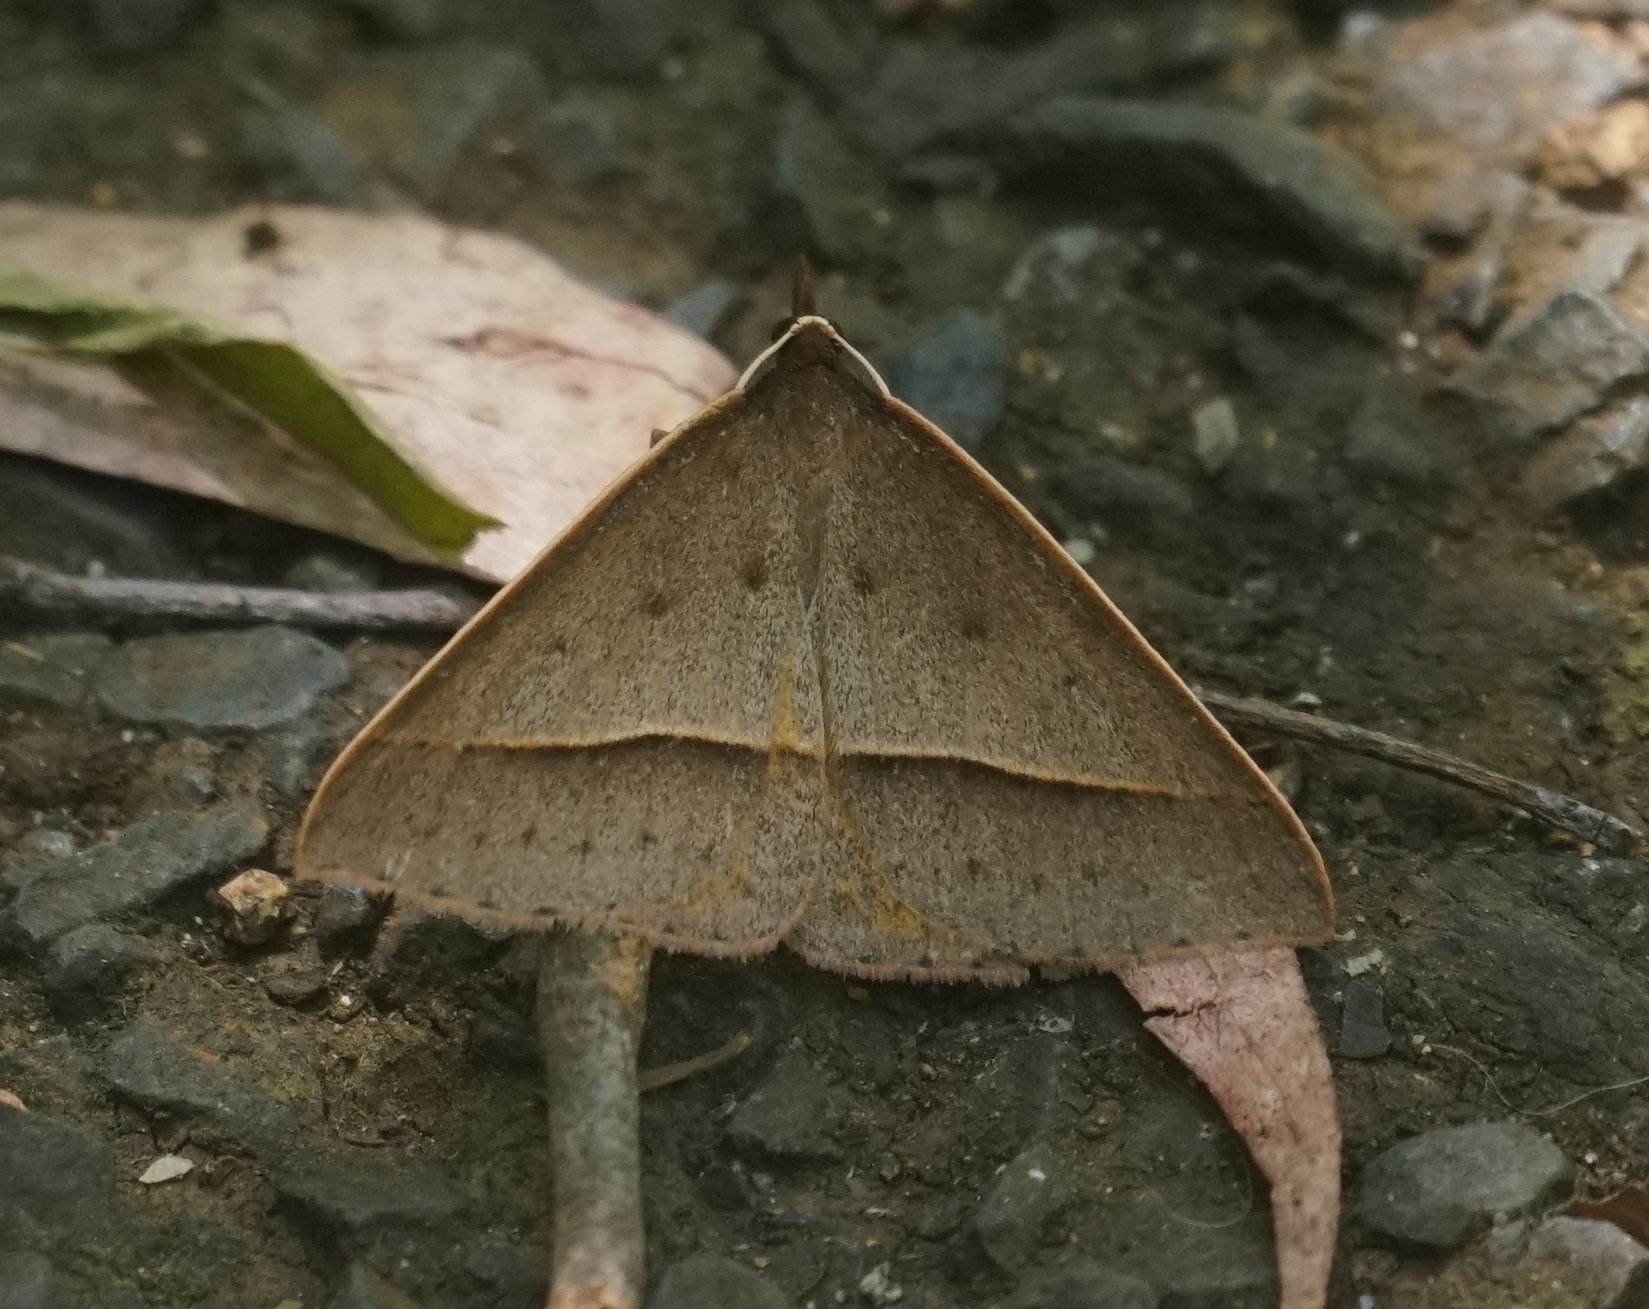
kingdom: Animalia
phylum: Arthropoda
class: Insecta
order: Lepidoptera
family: Geometridae
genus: Epidesmia
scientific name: Epidesmia tryxaria
